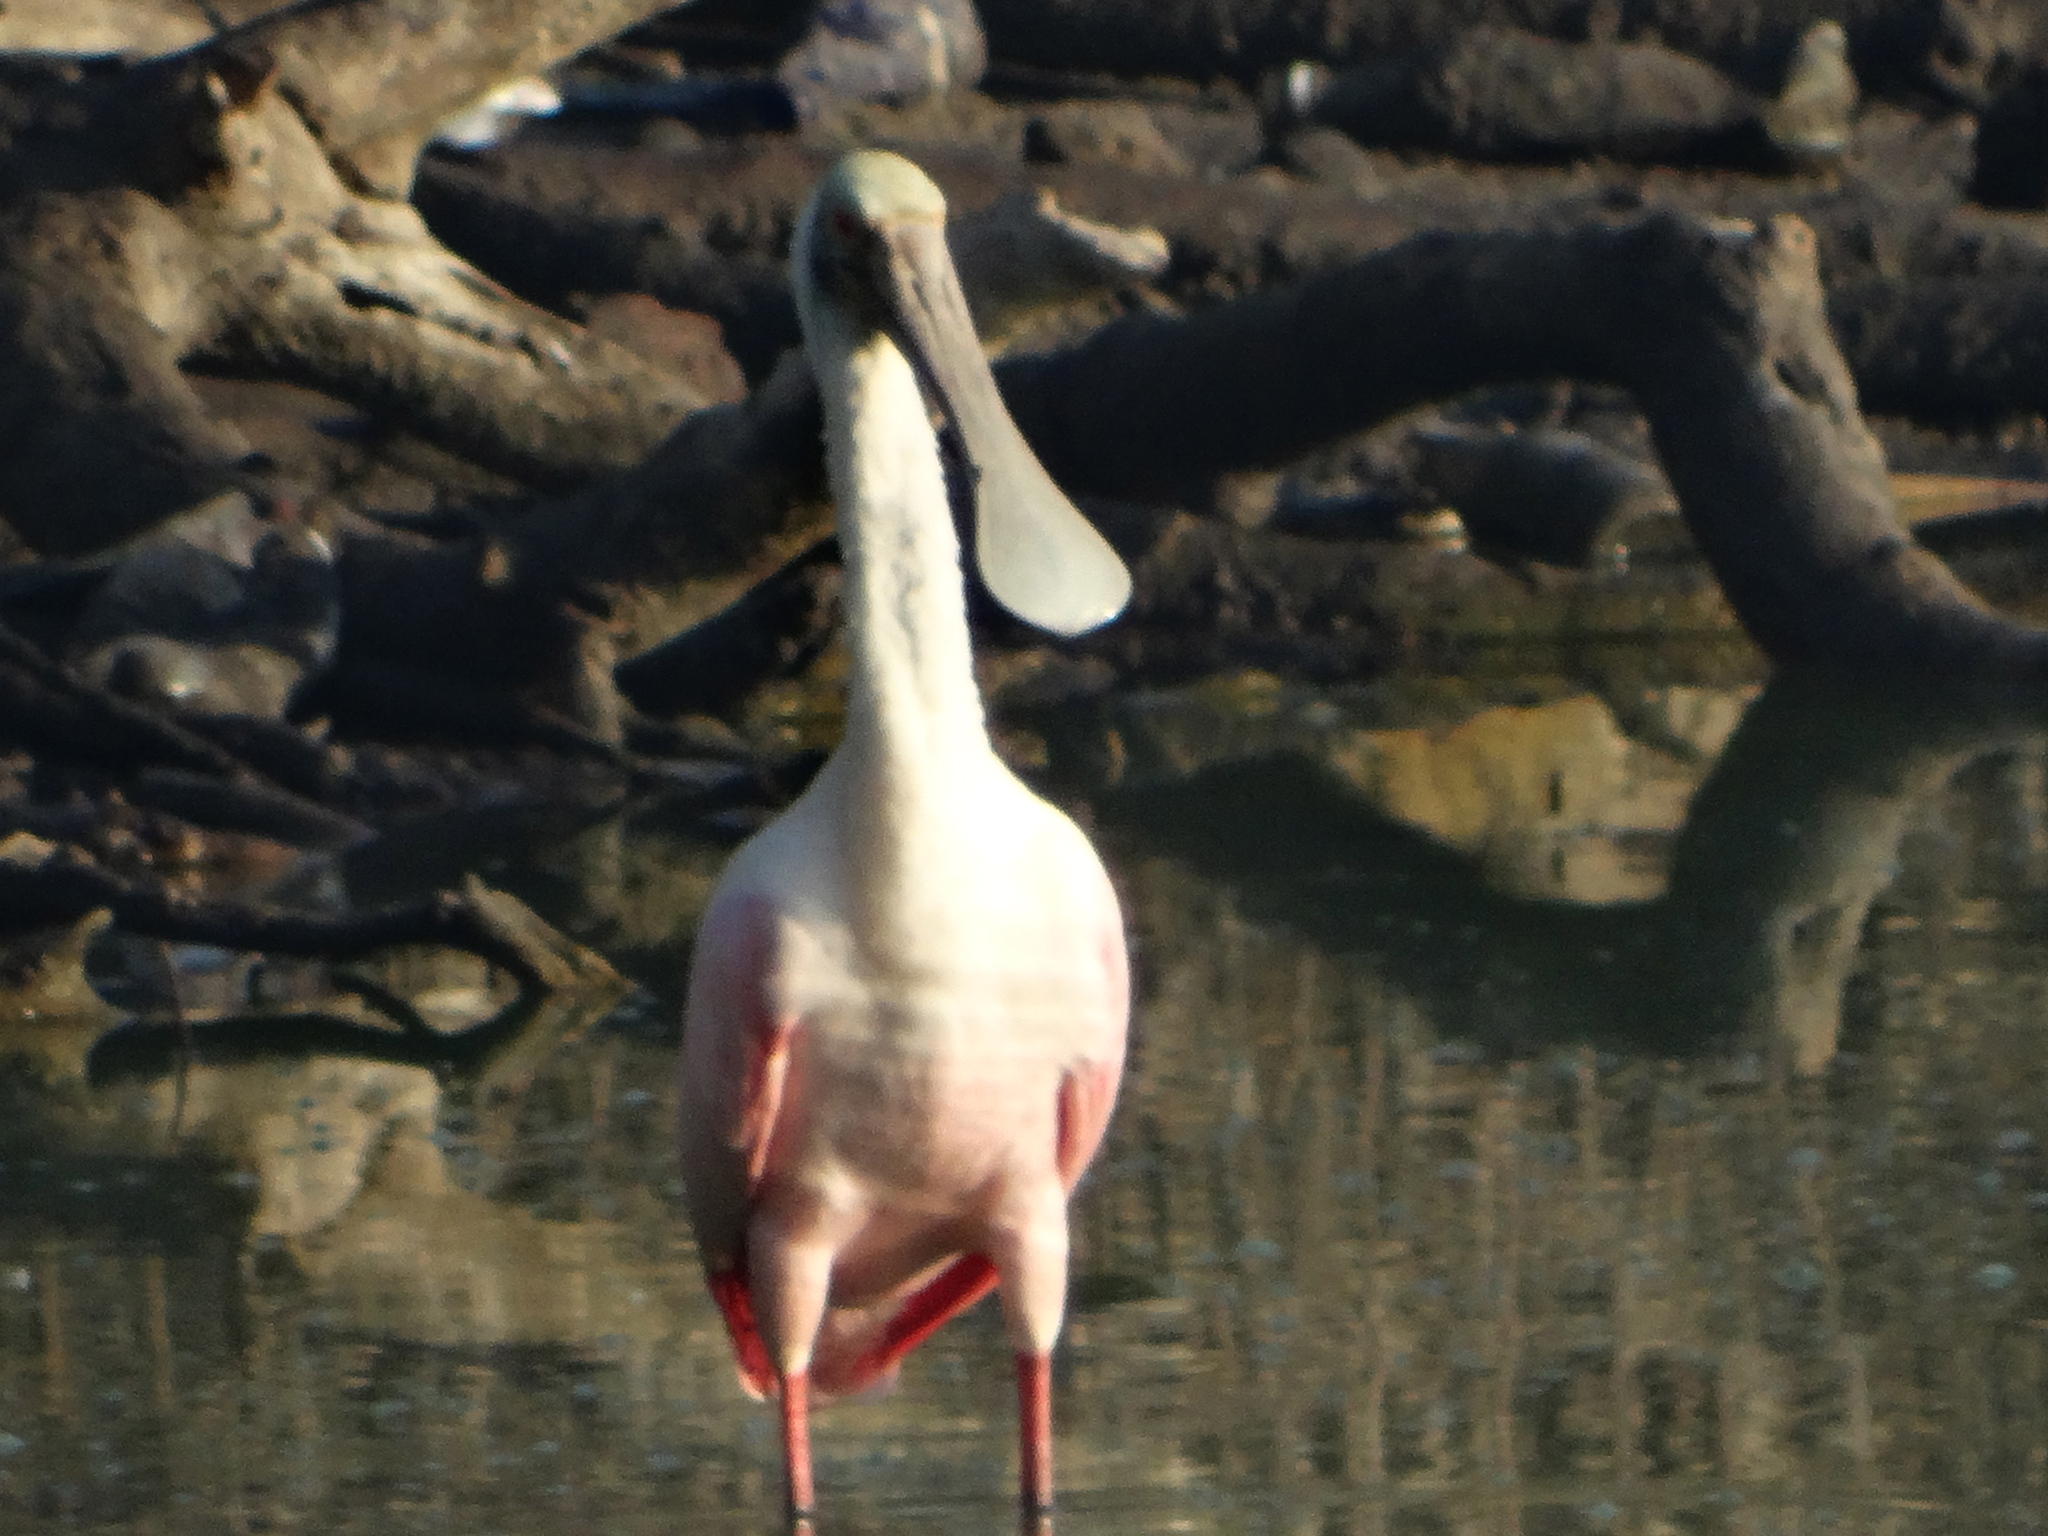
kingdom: Animalia
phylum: Chordata
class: Aves
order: Pelecaniformes
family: Threskiornithidae
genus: Platalea
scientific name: Platalea ajaja
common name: Roseate spoonbill
